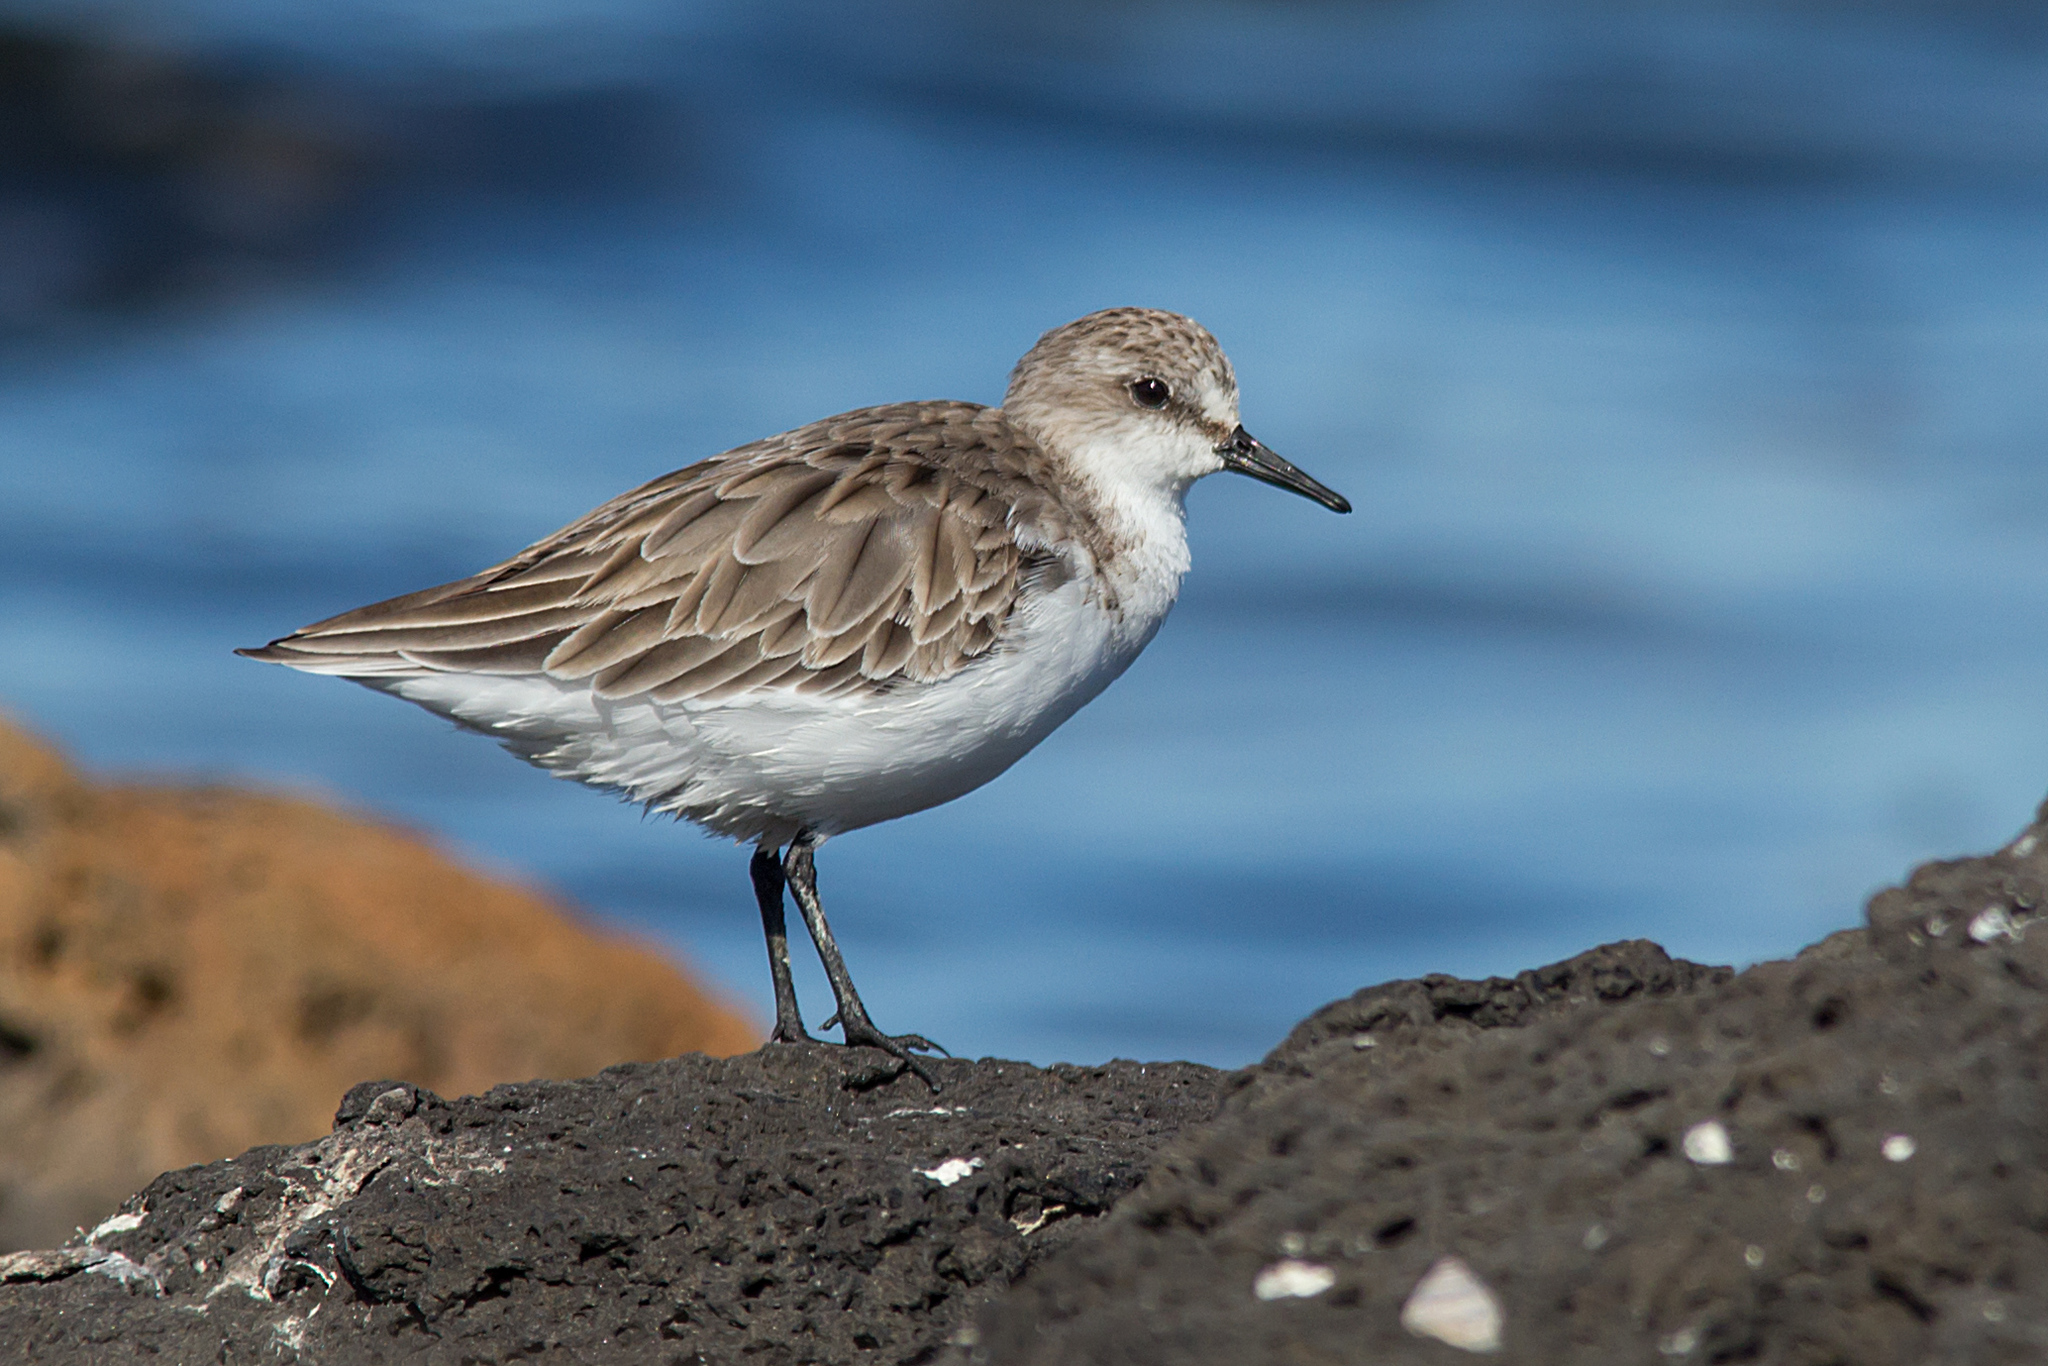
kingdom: Animalia
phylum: Chordata
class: Aves
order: Charadriiformes
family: Scolopacidae
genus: Calidris
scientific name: Calidris ruficollis
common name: Red-necked stint
